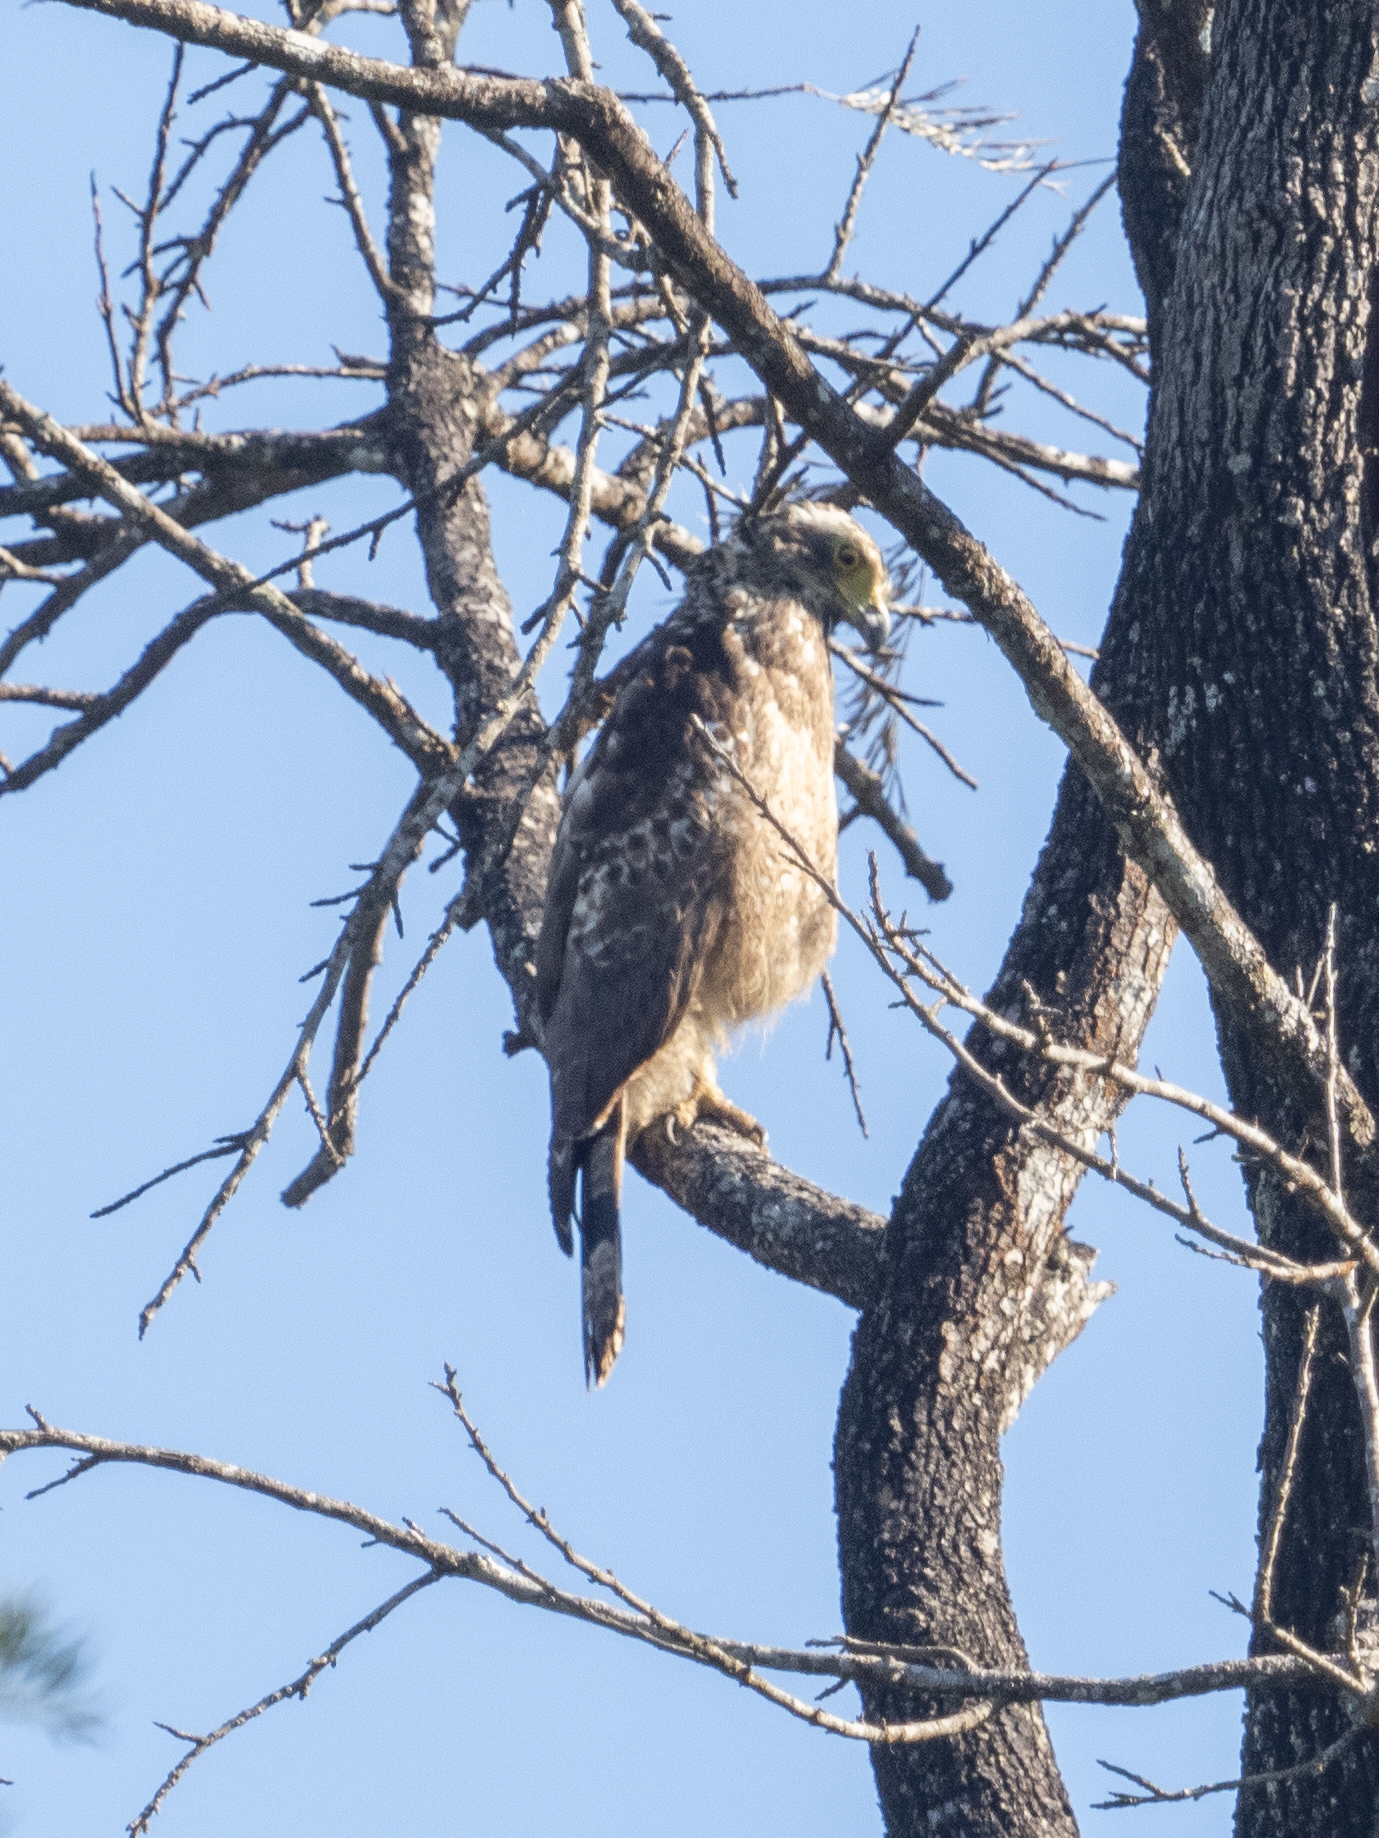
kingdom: Animalia
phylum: Chordata
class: Aves
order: Accipitriformes
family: Accipitridae
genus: Spilornis
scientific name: Spilornis cheela
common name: Crested serpent eagle
